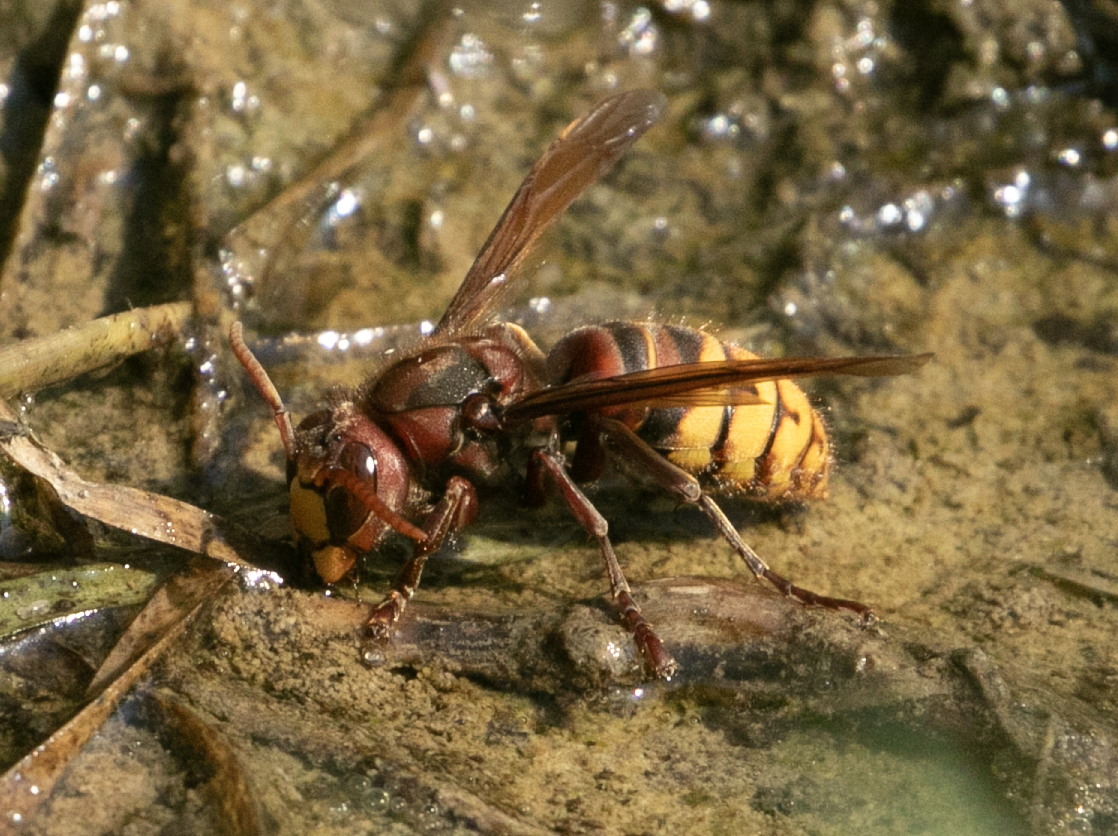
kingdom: Animalia
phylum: Arthropoda
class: Insecta
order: Hymenoptera
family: Vespidae
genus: Vespa
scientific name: Vespa crabro
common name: Hornet
